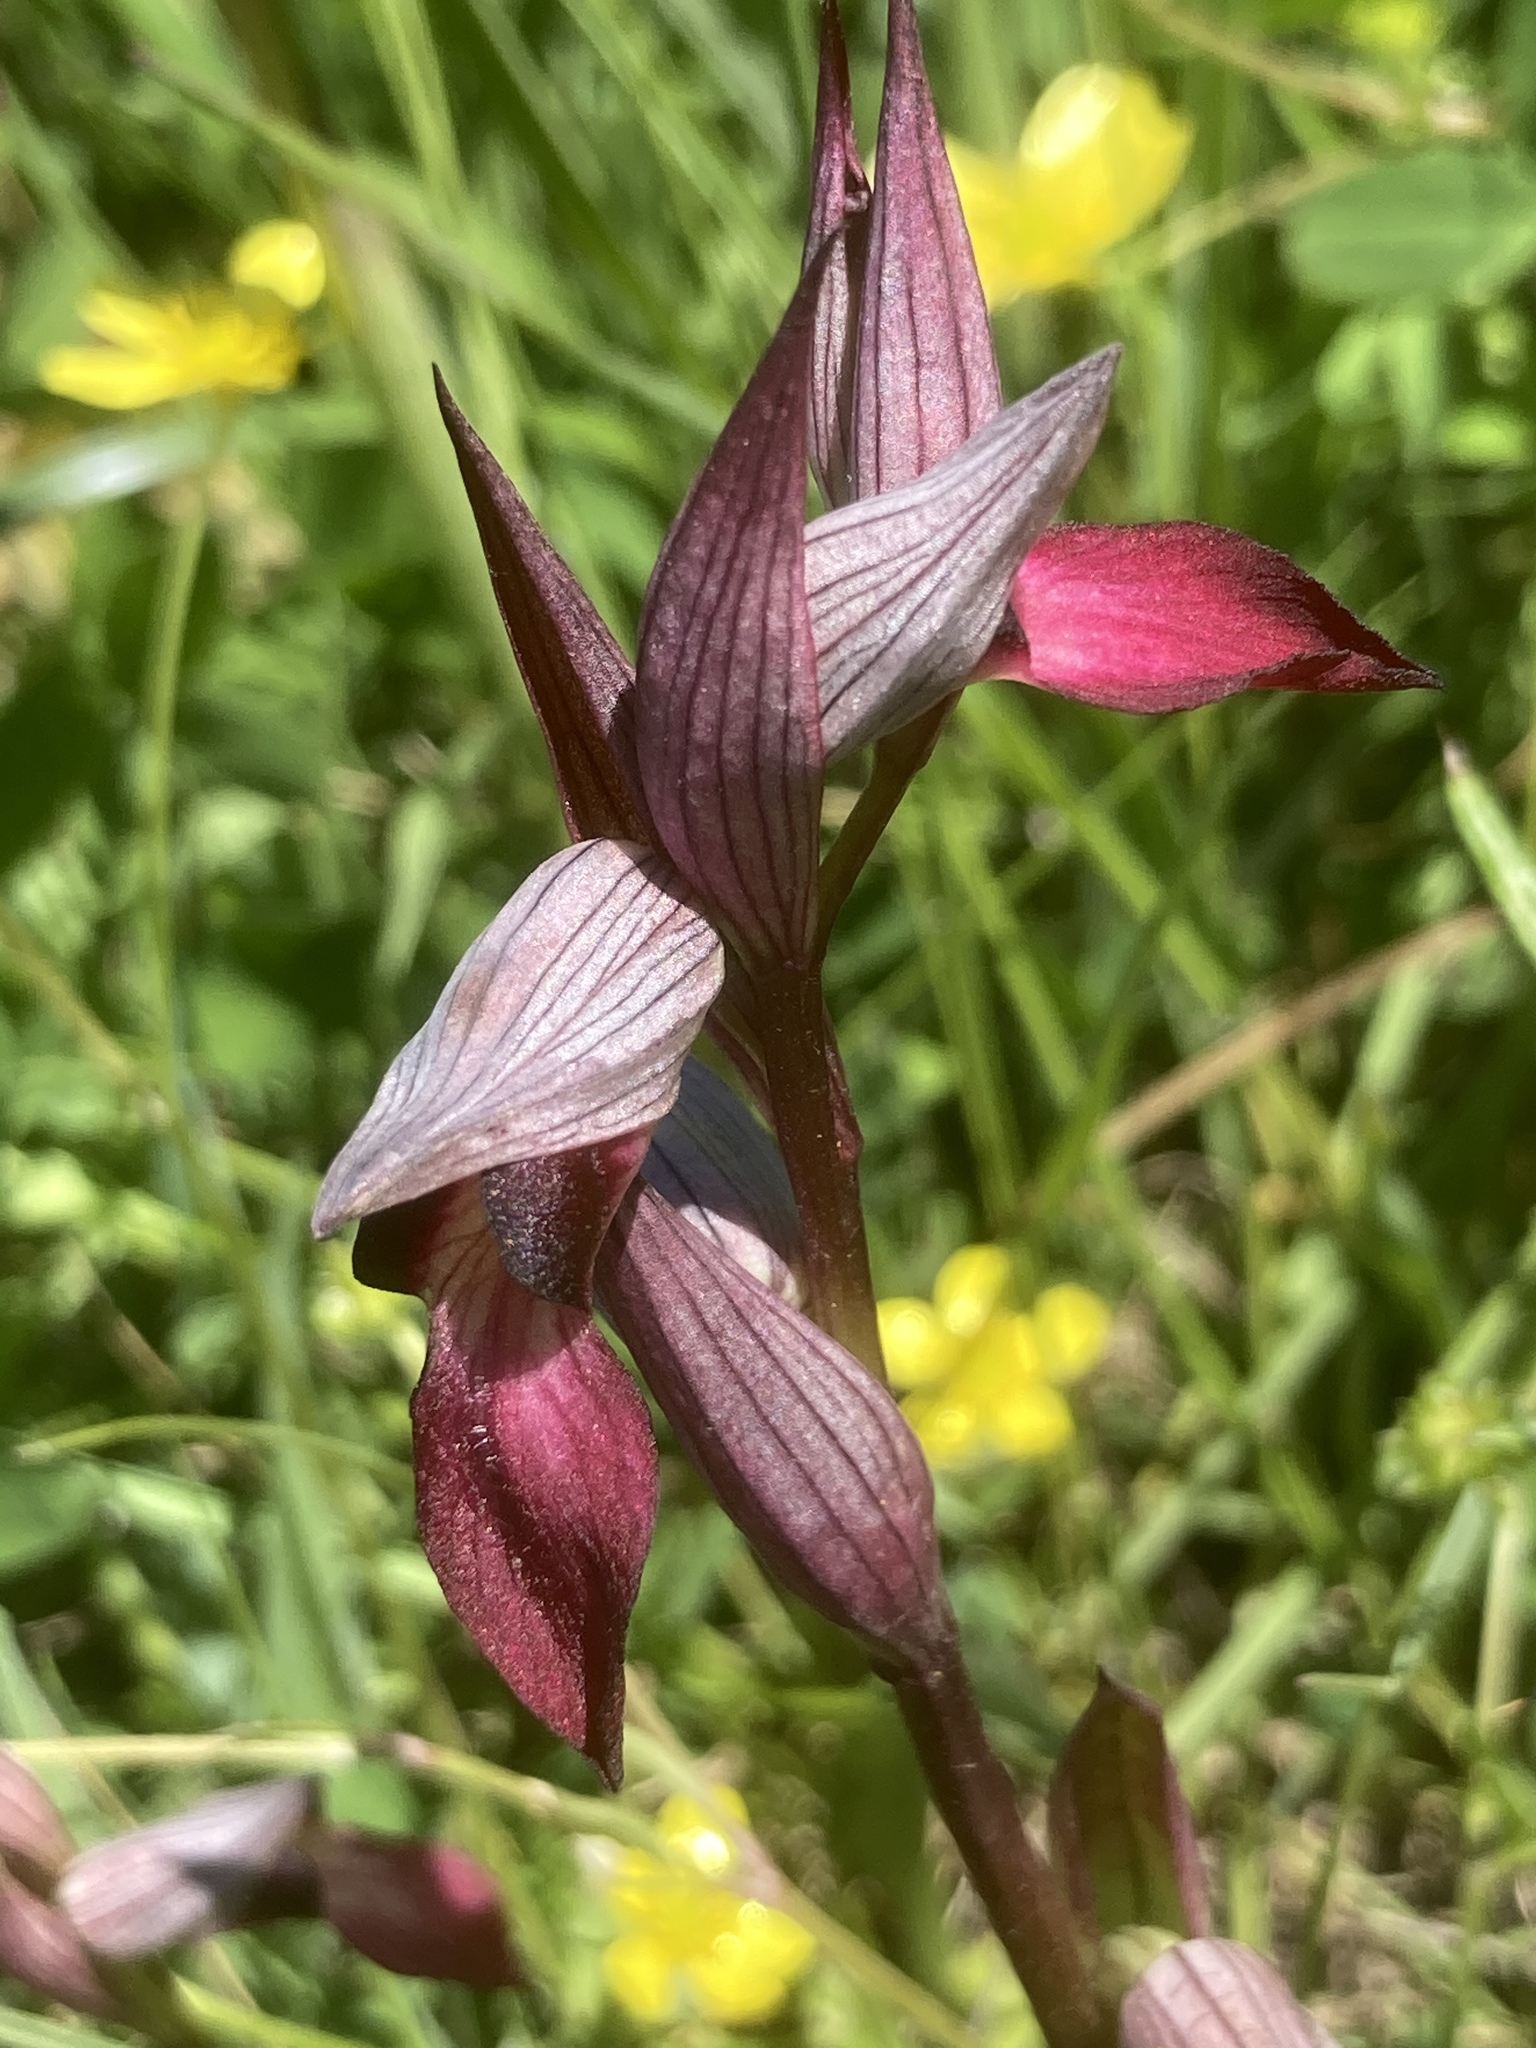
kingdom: Plantae
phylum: Tracheophyta
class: Liliopsida
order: Asparagales
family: Orchidaceae
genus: Serapias
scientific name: Serapias lingua
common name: Tongue-orchid
